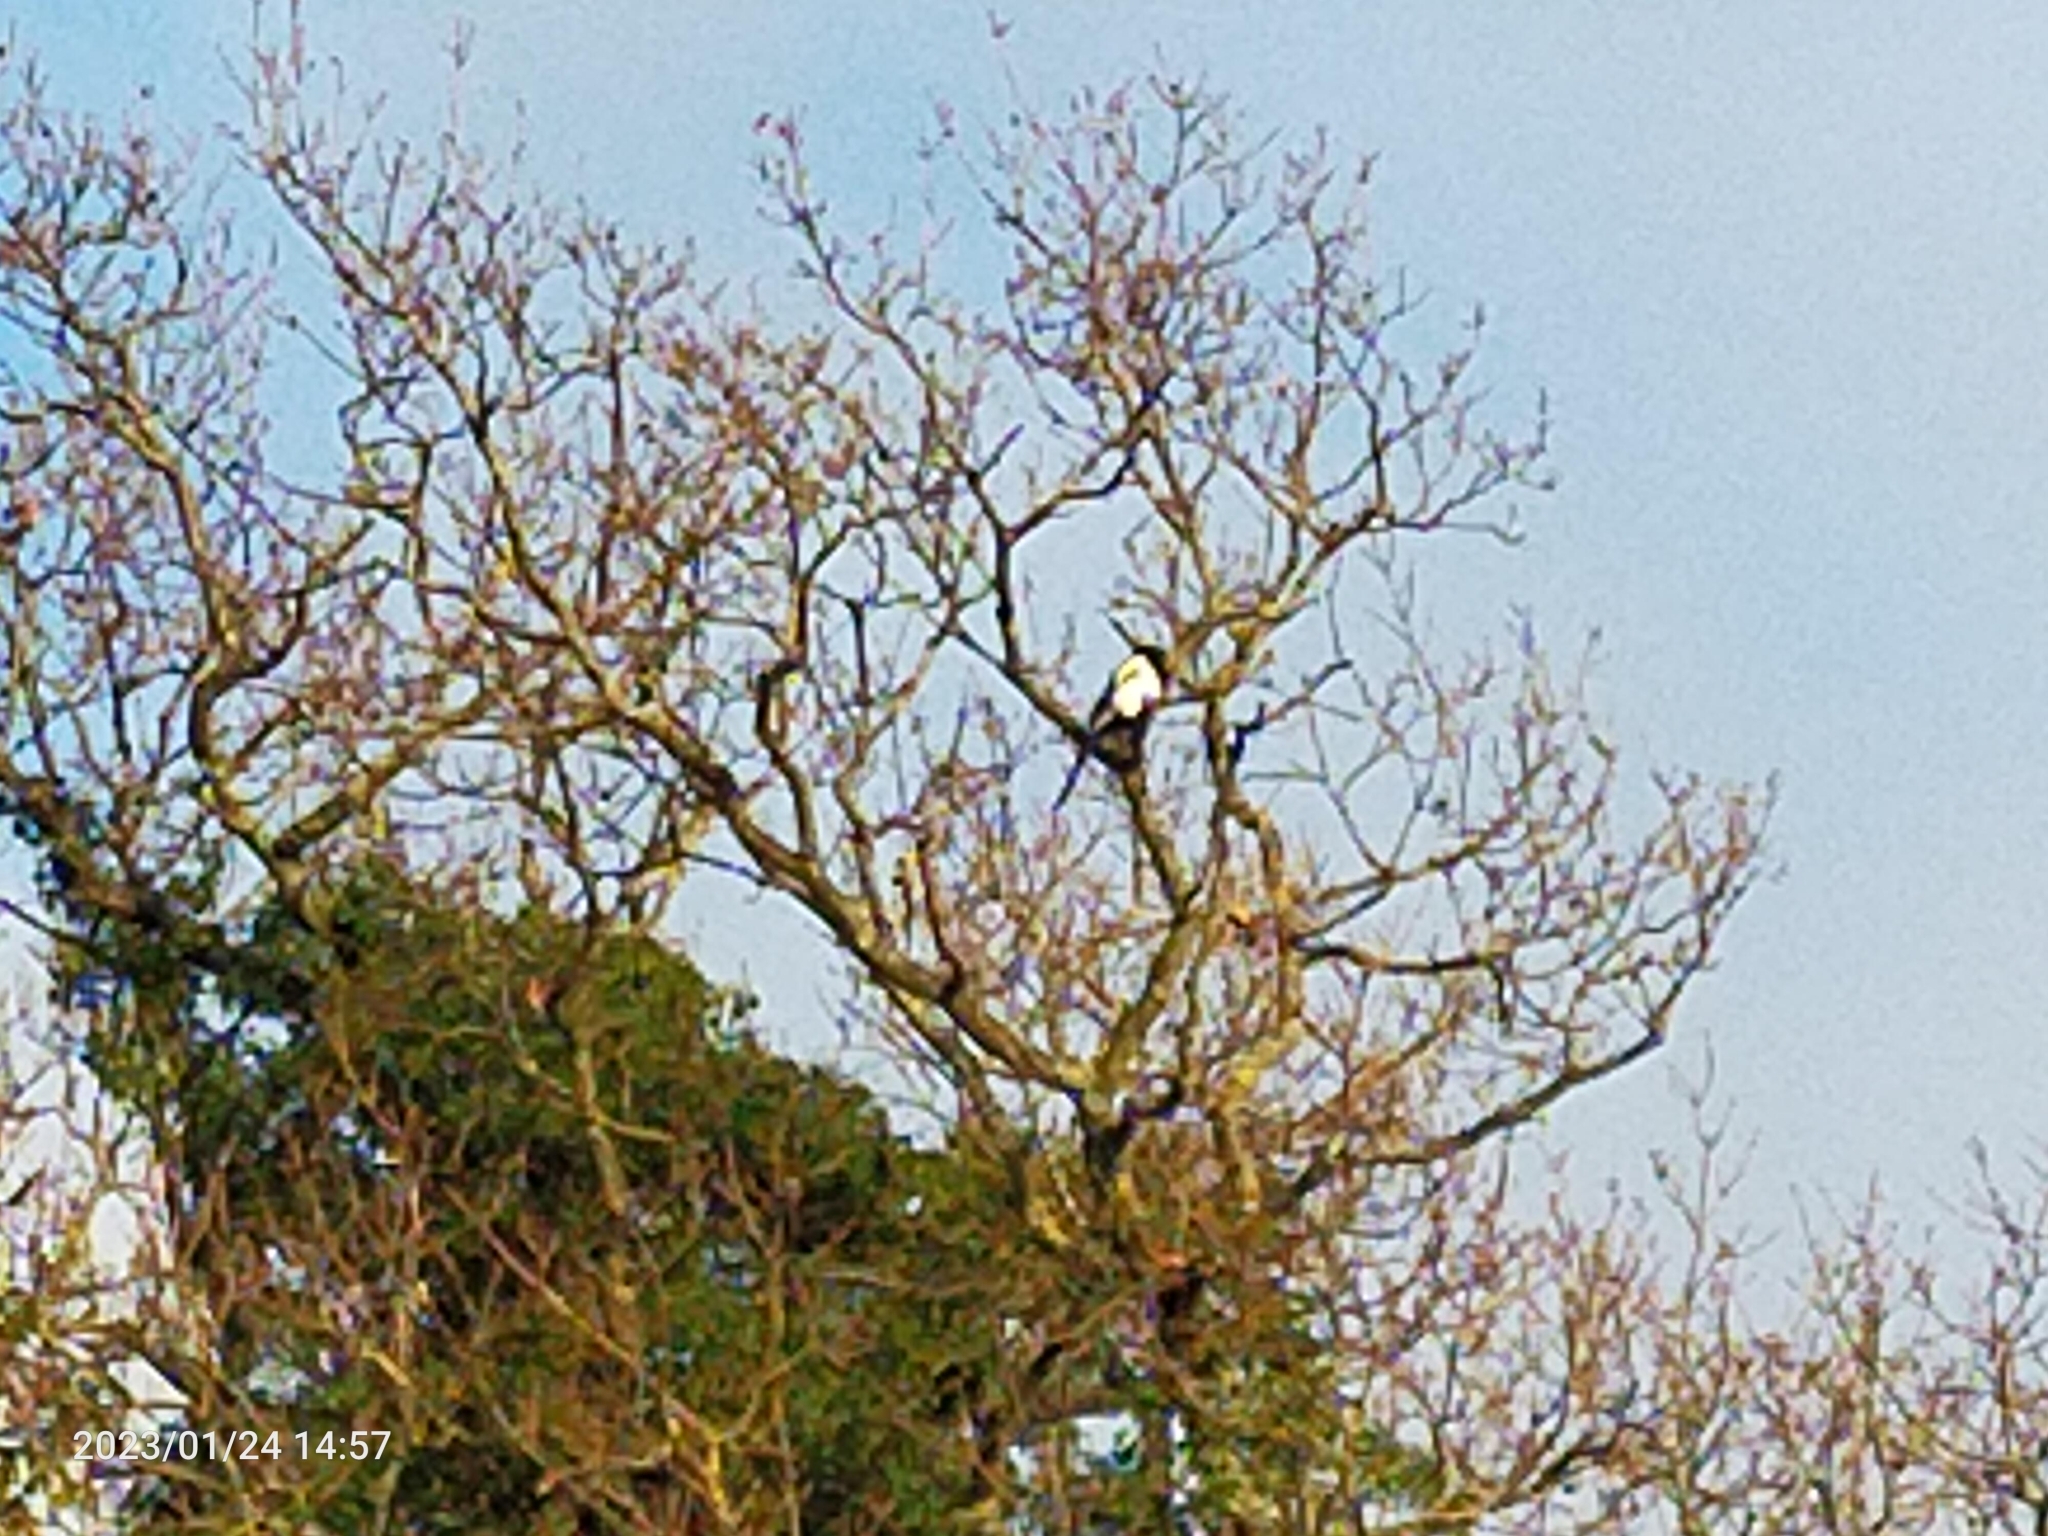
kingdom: Animalia
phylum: Chordata
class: Aves
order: Passeriformes
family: Corvidae
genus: Pica
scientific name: Pica pica
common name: Eurasian magpie
